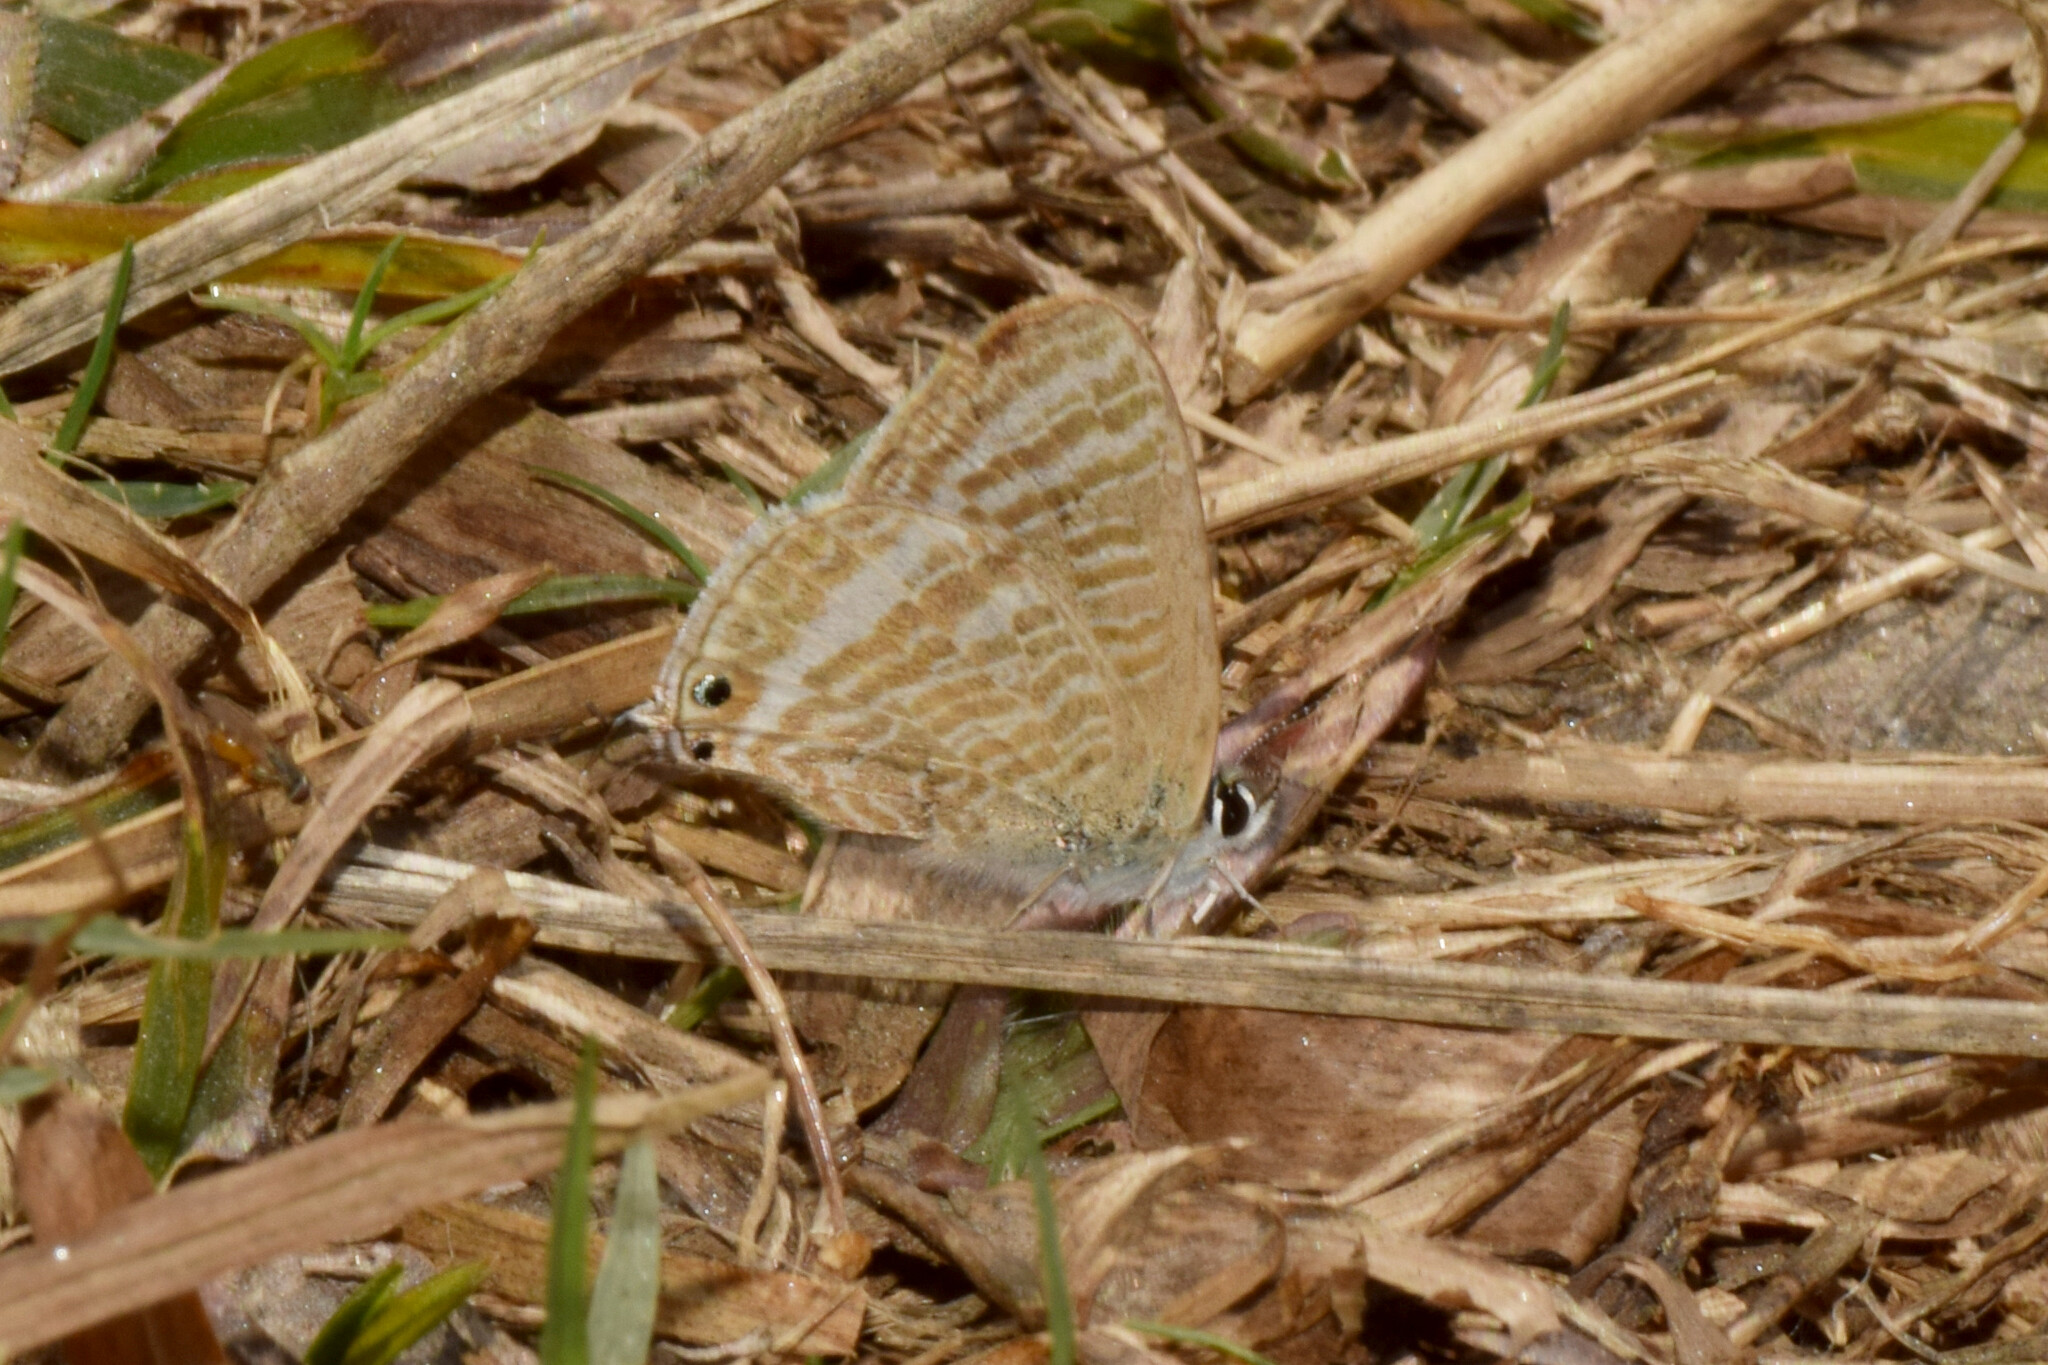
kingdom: Animalia
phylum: Arthropoda
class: Insecta
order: Lepidoptera
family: Lycaenidae
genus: Lampides
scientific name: Lampides boeticus
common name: Long-tailed blue
